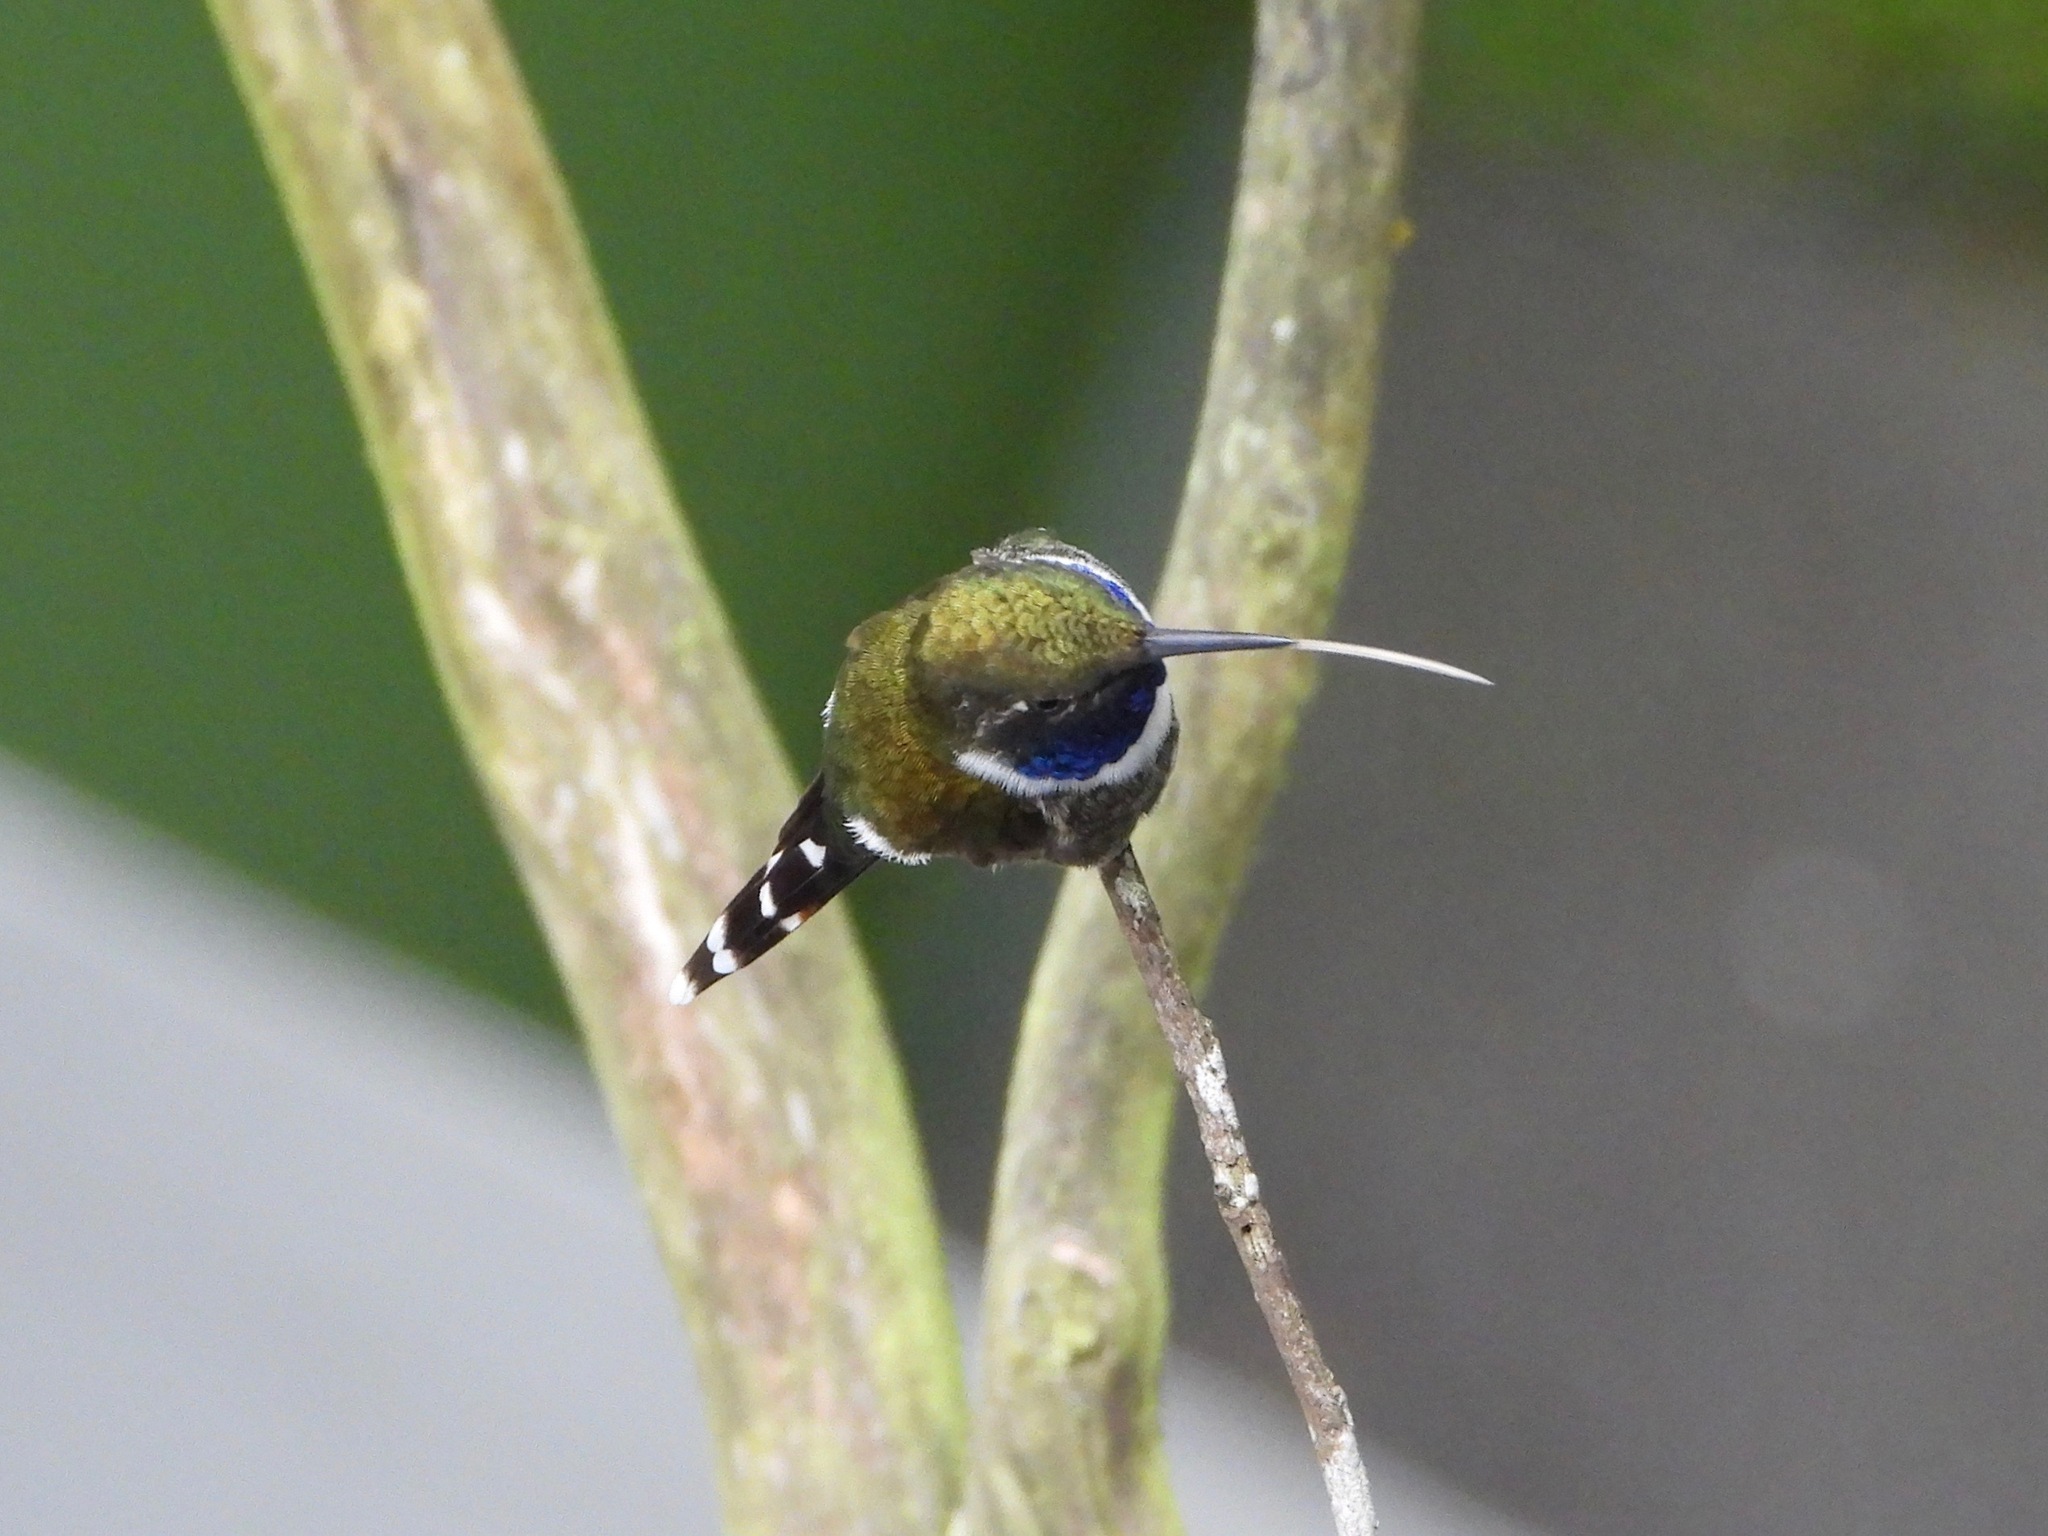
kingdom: Animalia
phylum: Chordata
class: Aves
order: Apodiformes
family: Trochilidae
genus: Tilmatura
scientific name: Tilmatura dupontii
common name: Sparkling-tailed woodstar
